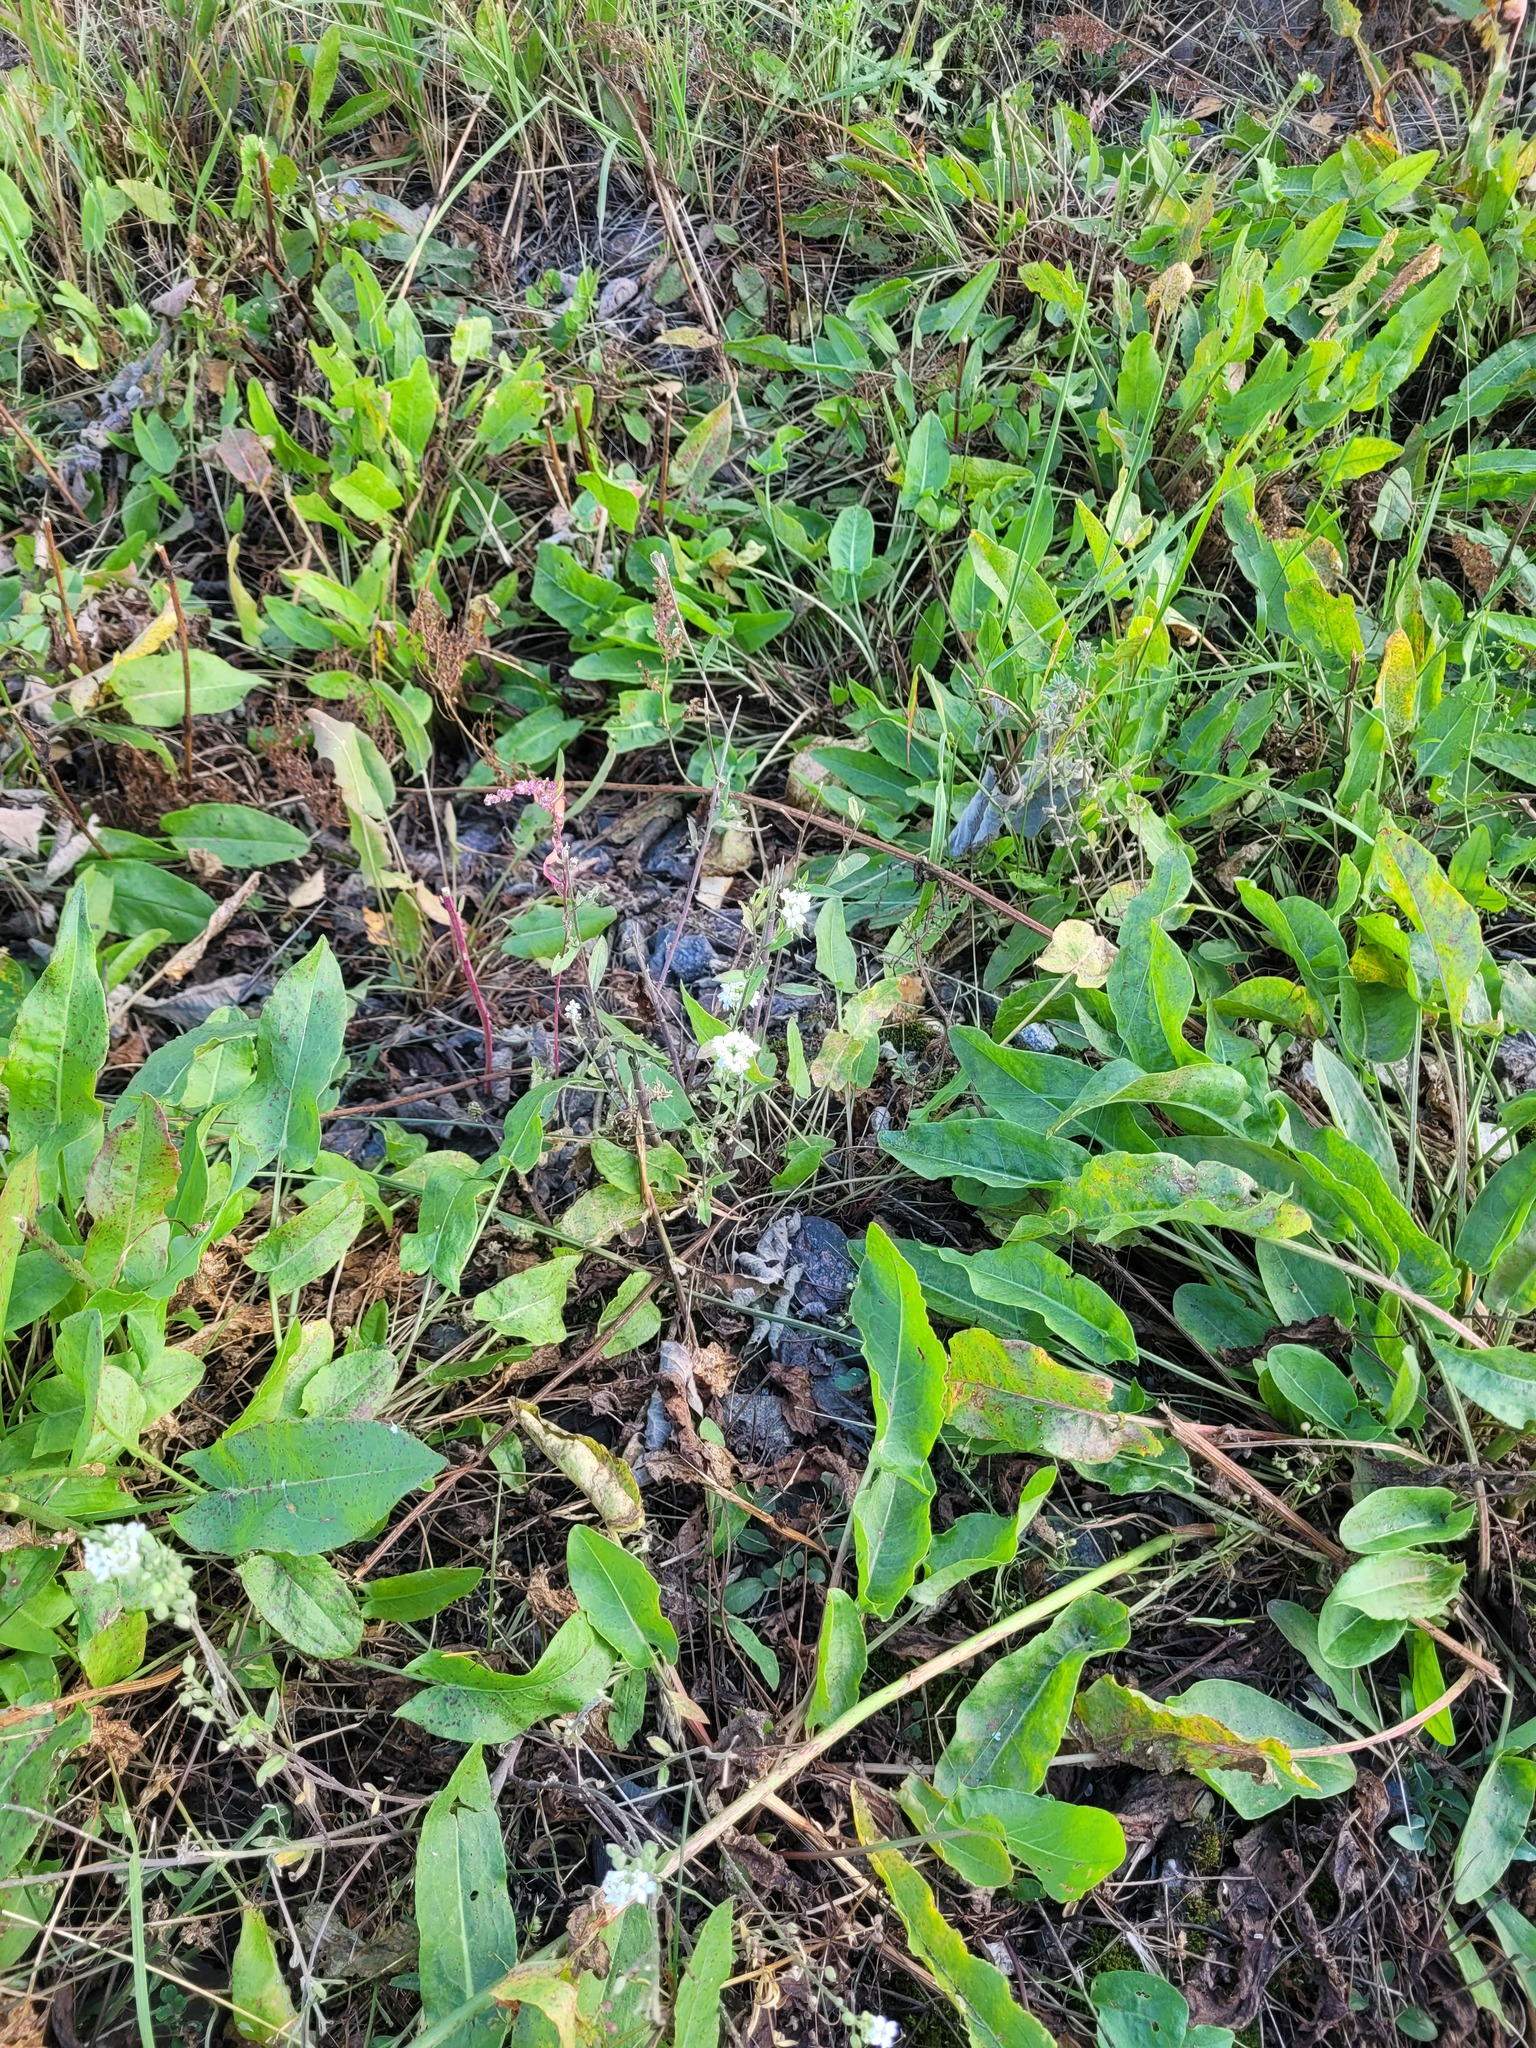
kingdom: Plantae
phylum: Tracheophyta
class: Magnoliopsida
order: Brassicales
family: Brassicaceae
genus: Berteroa
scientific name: Berteroa incana
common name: Hoary alison
